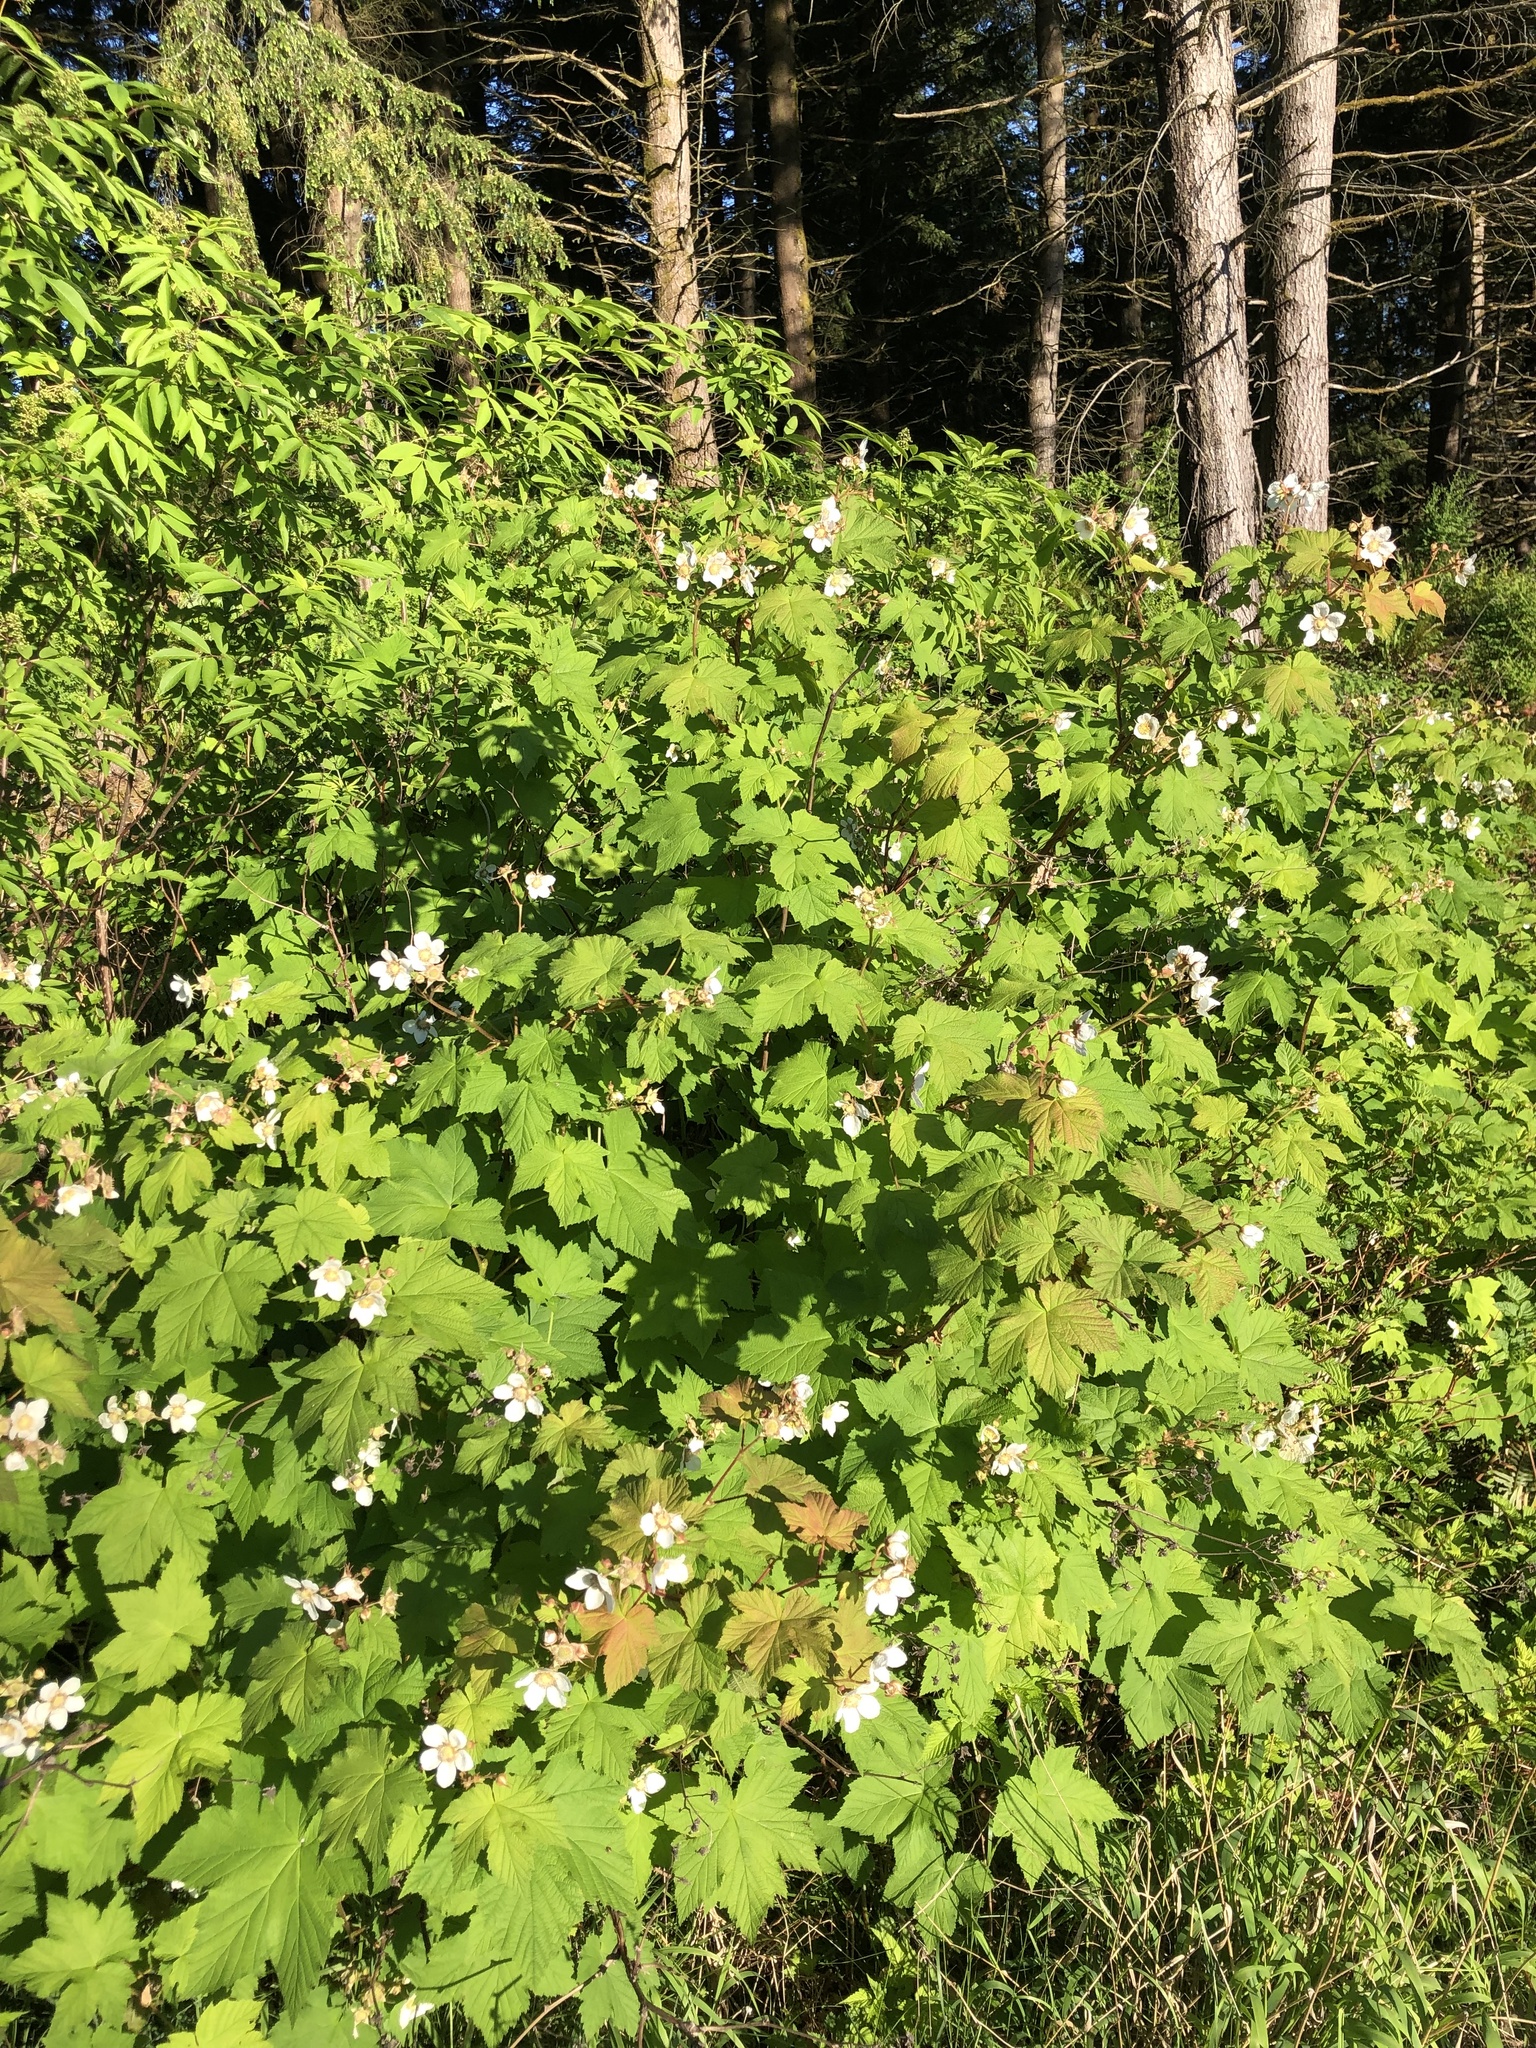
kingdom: Plantae
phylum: Tracheophyta
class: Magnoliopsida
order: Rosales
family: Rosaceae
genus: Rubus
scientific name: Rubus parviflorus
